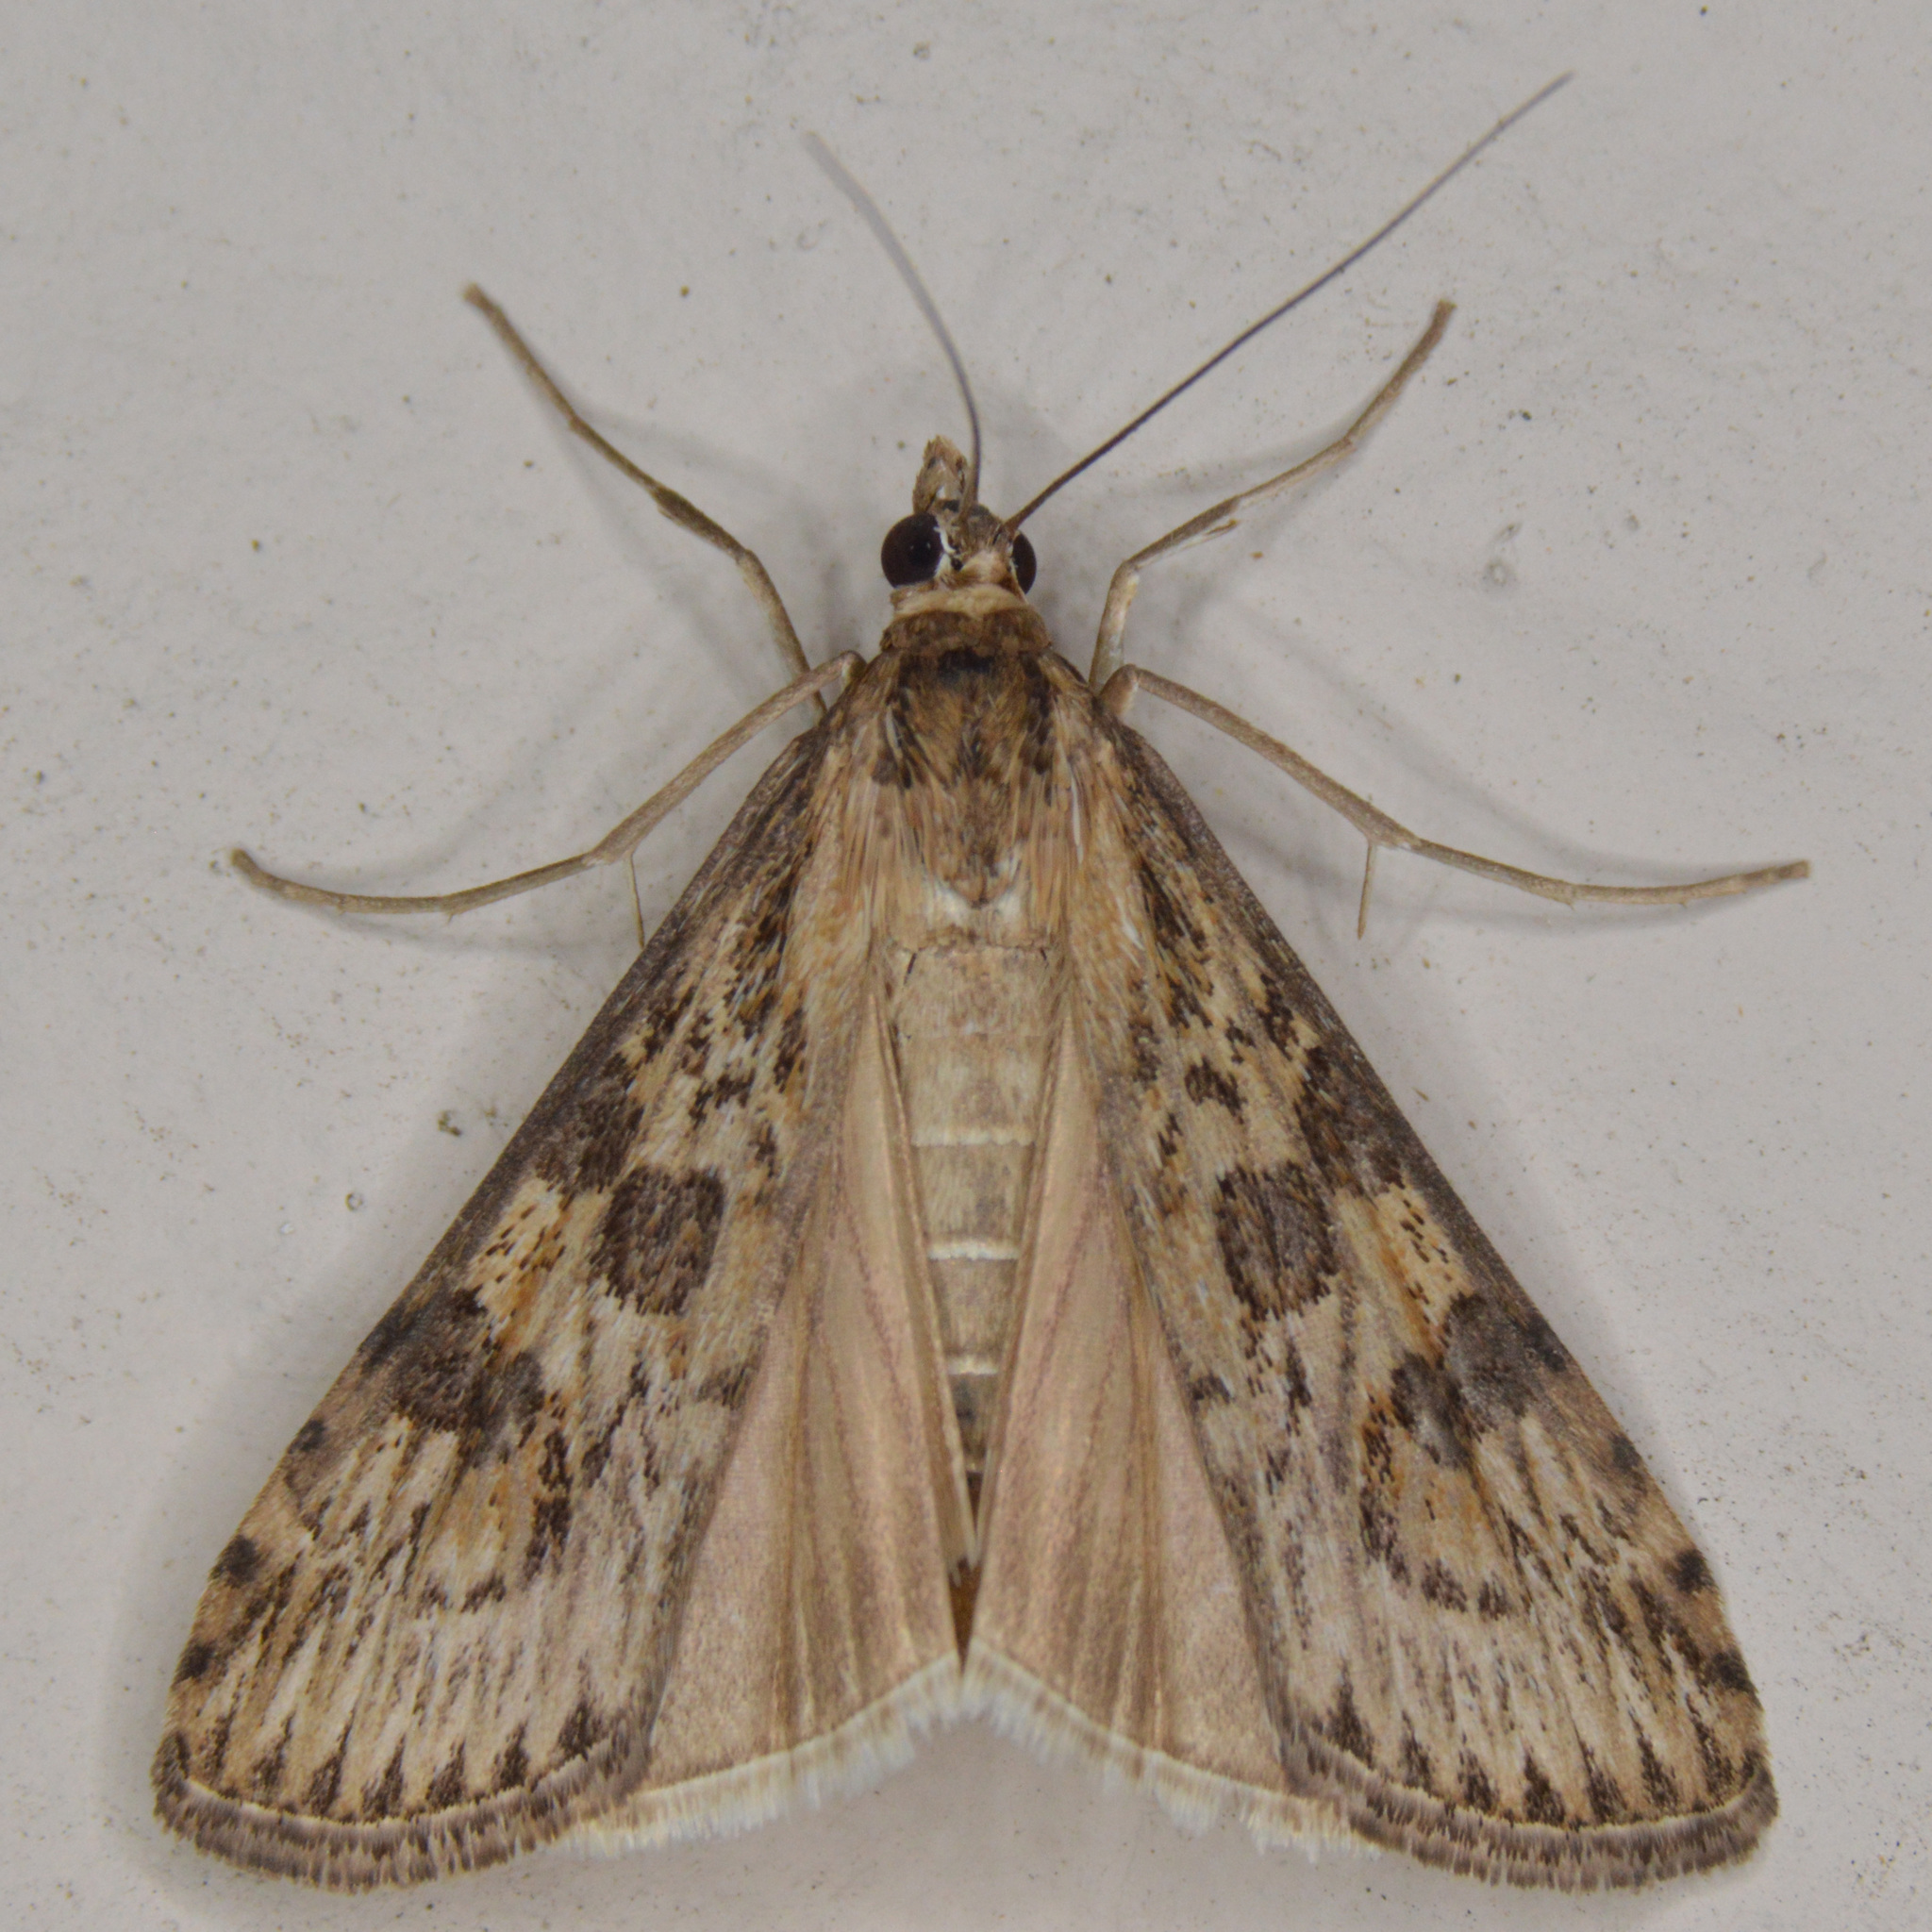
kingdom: Animalia
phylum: Arthropoda
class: Insecta
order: Lepidoptera
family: Crambidae
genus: Nomophila
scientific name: Nomophila nearctica
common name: American rush veneer
